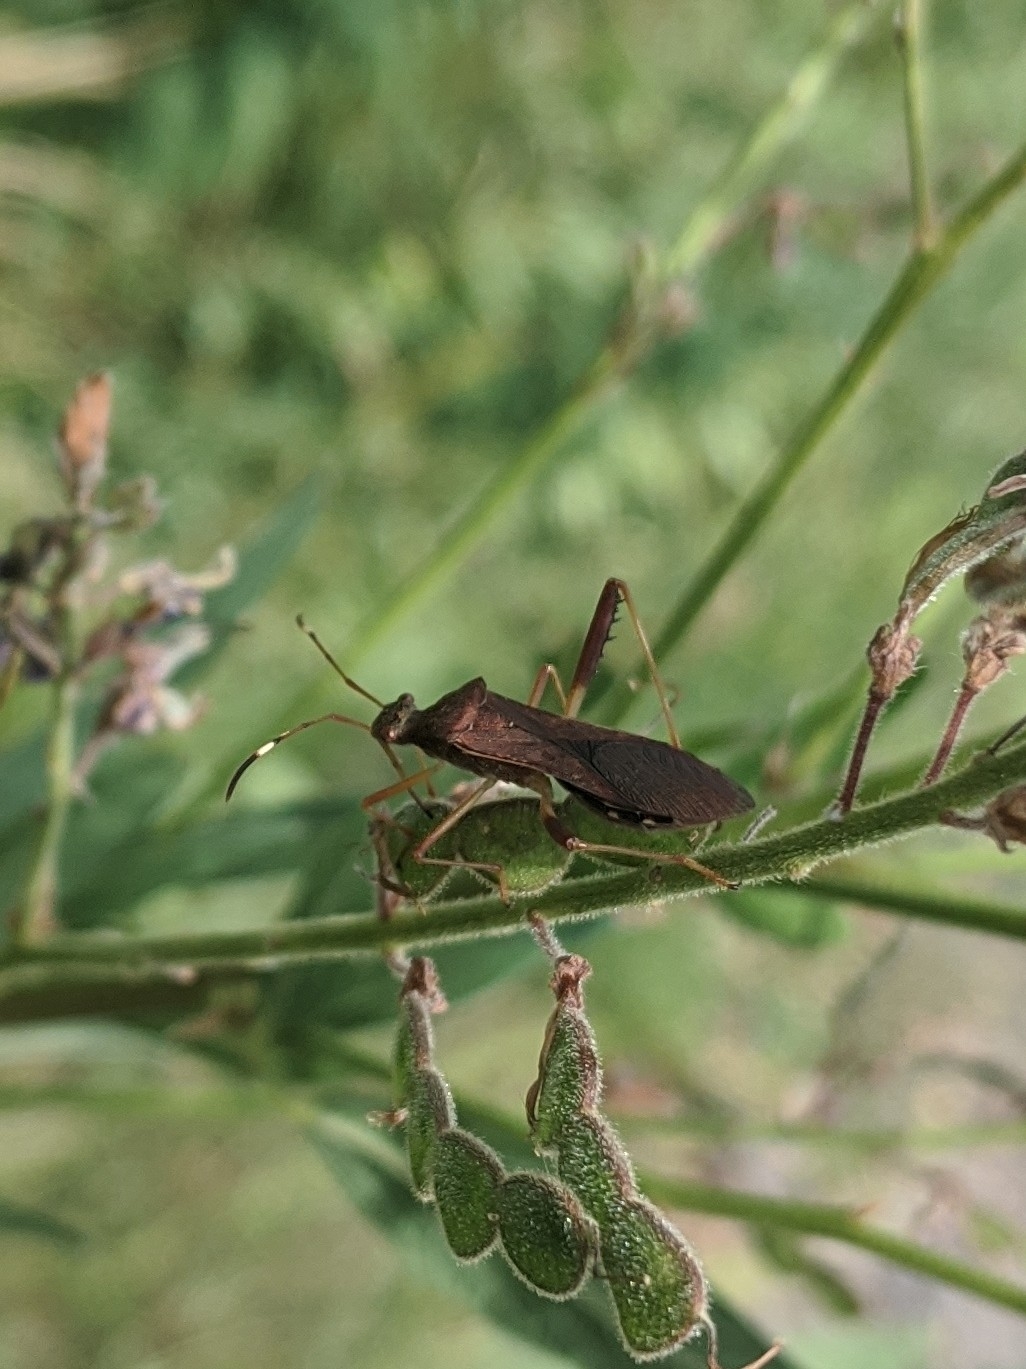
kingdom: Animalia
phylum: Arthropoda
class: Insecta
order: Hemiptera
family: Alydidae
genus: Megalotomus
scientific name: Megalotomus quinquespinosus
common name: Lupine bug
